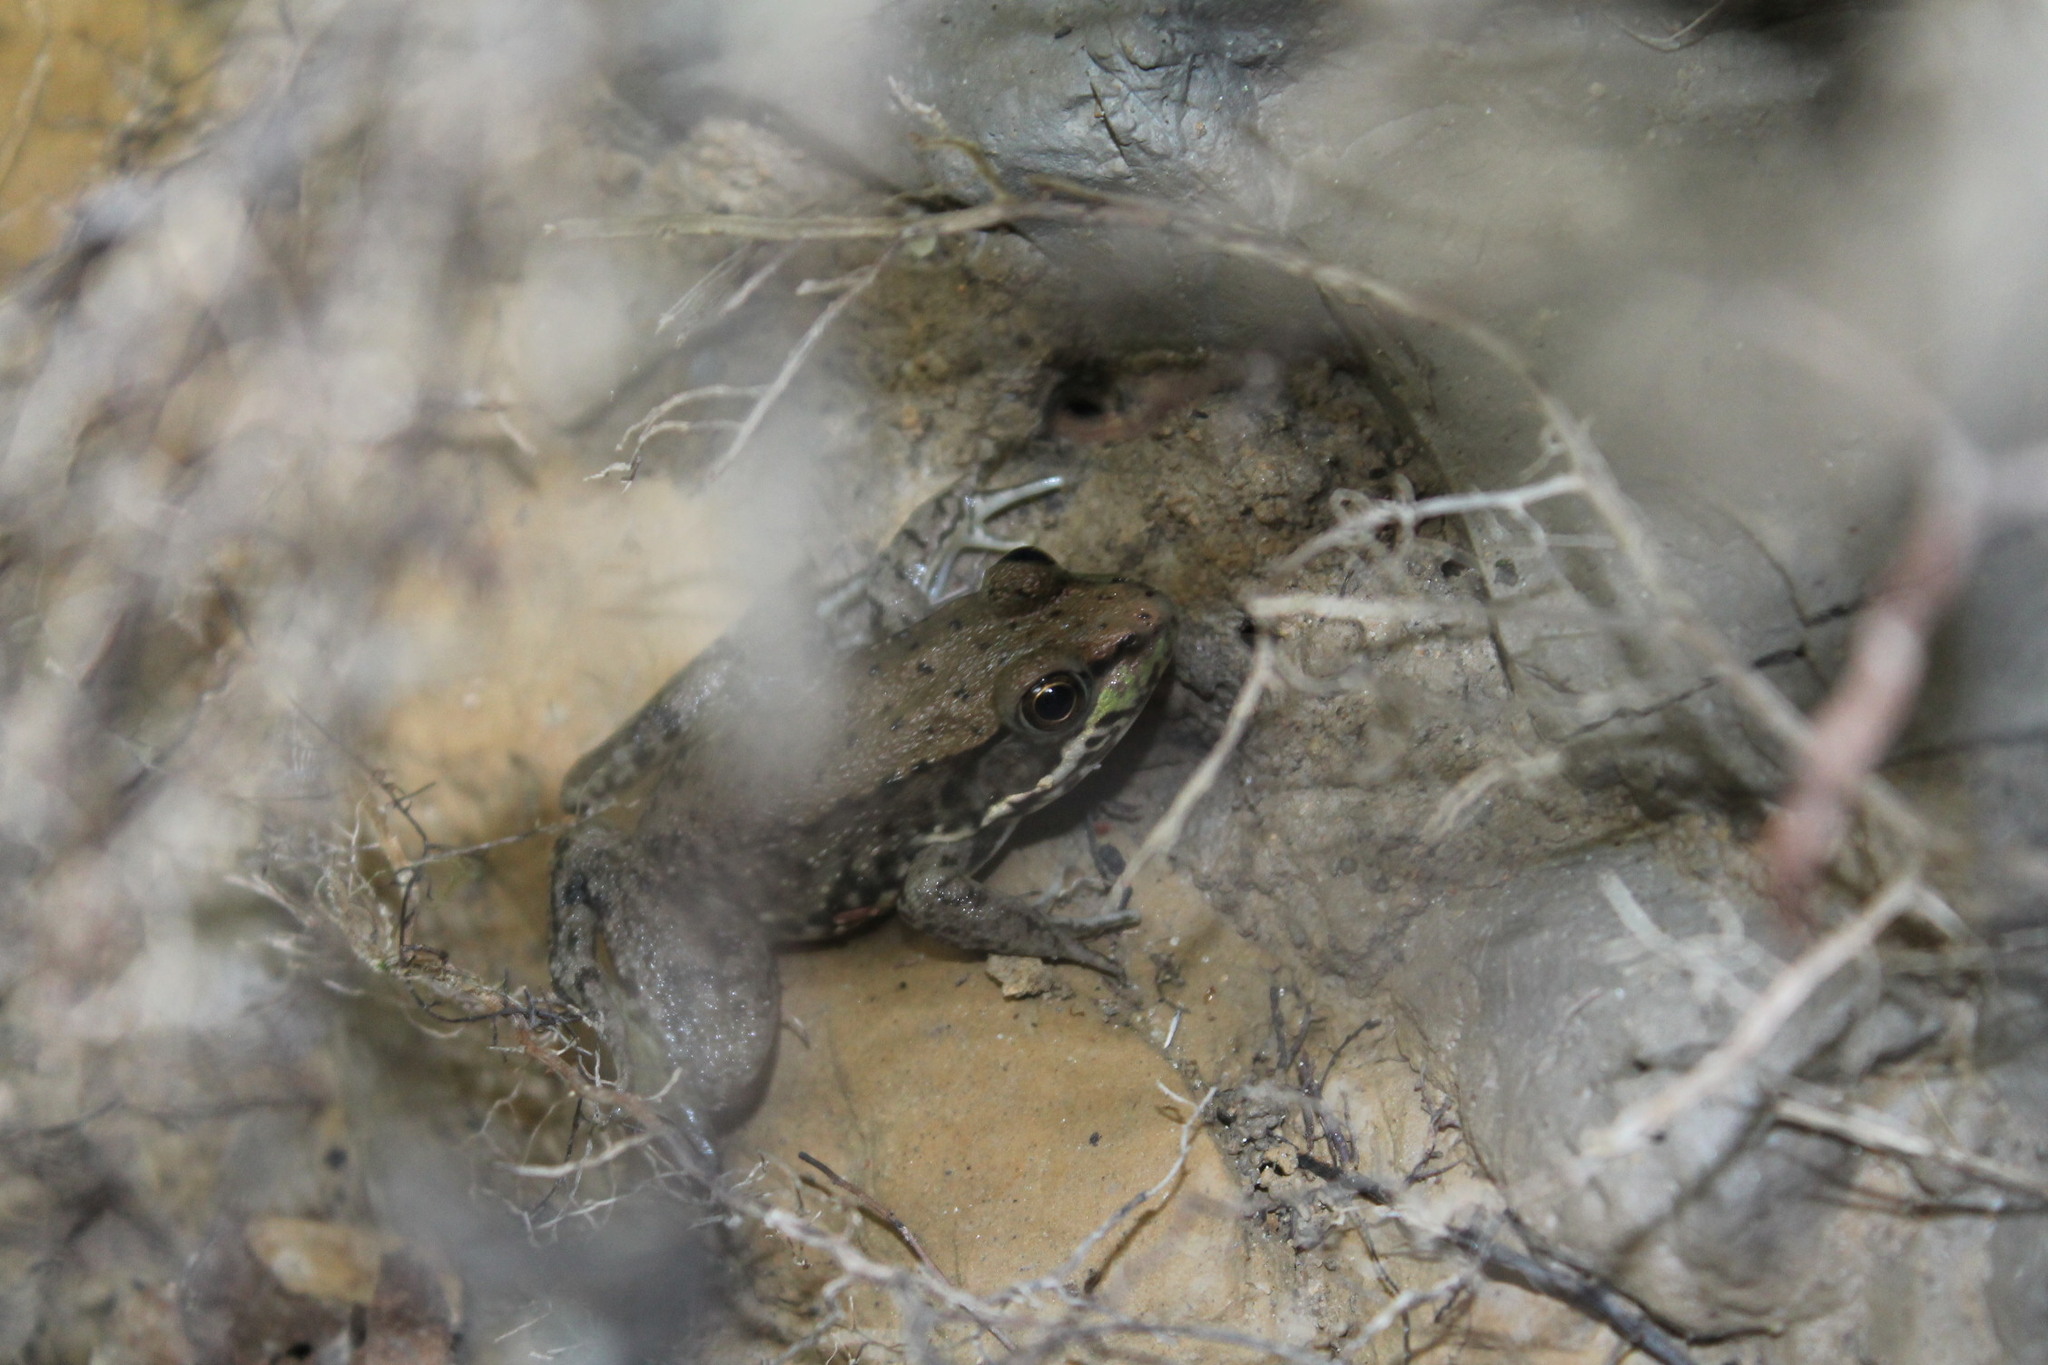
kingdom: Animalia
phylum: Chordata
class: Amphibia
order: Anura
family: Ranidae
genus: Lithobates
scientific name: Lithobates clamitans
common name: Green frog
